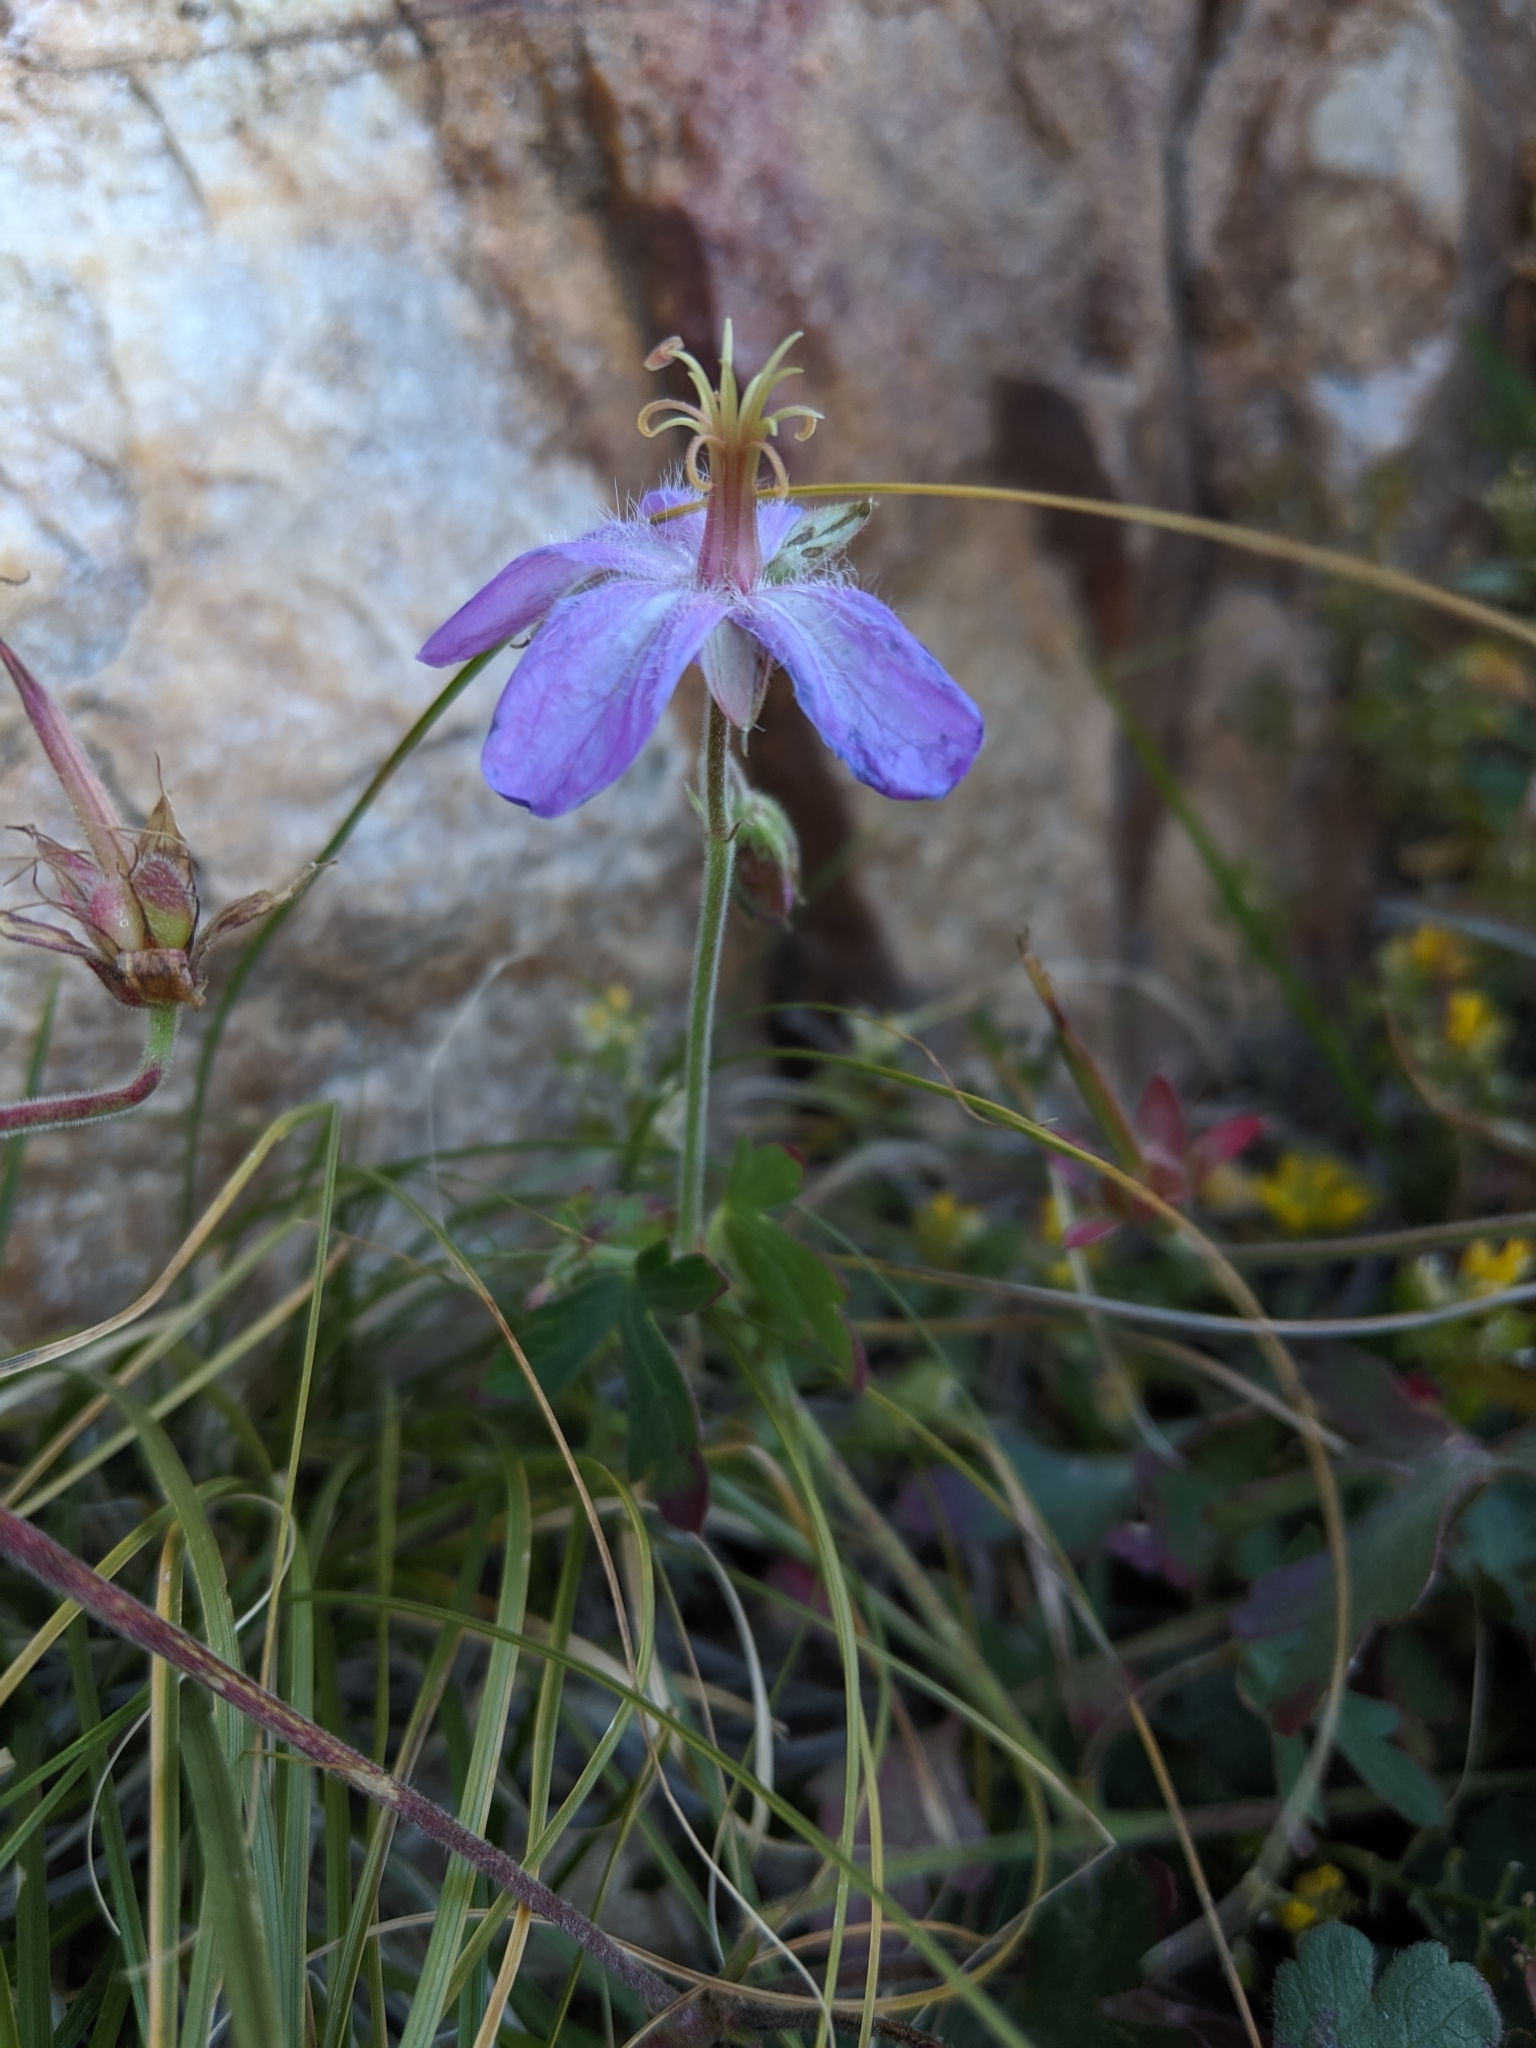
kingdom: Plantae
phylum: Tracheophyta
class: Magnoliopsida
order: Geraniales
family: Geraniaceae
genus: Geranium
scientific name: Geranium caespitosum
